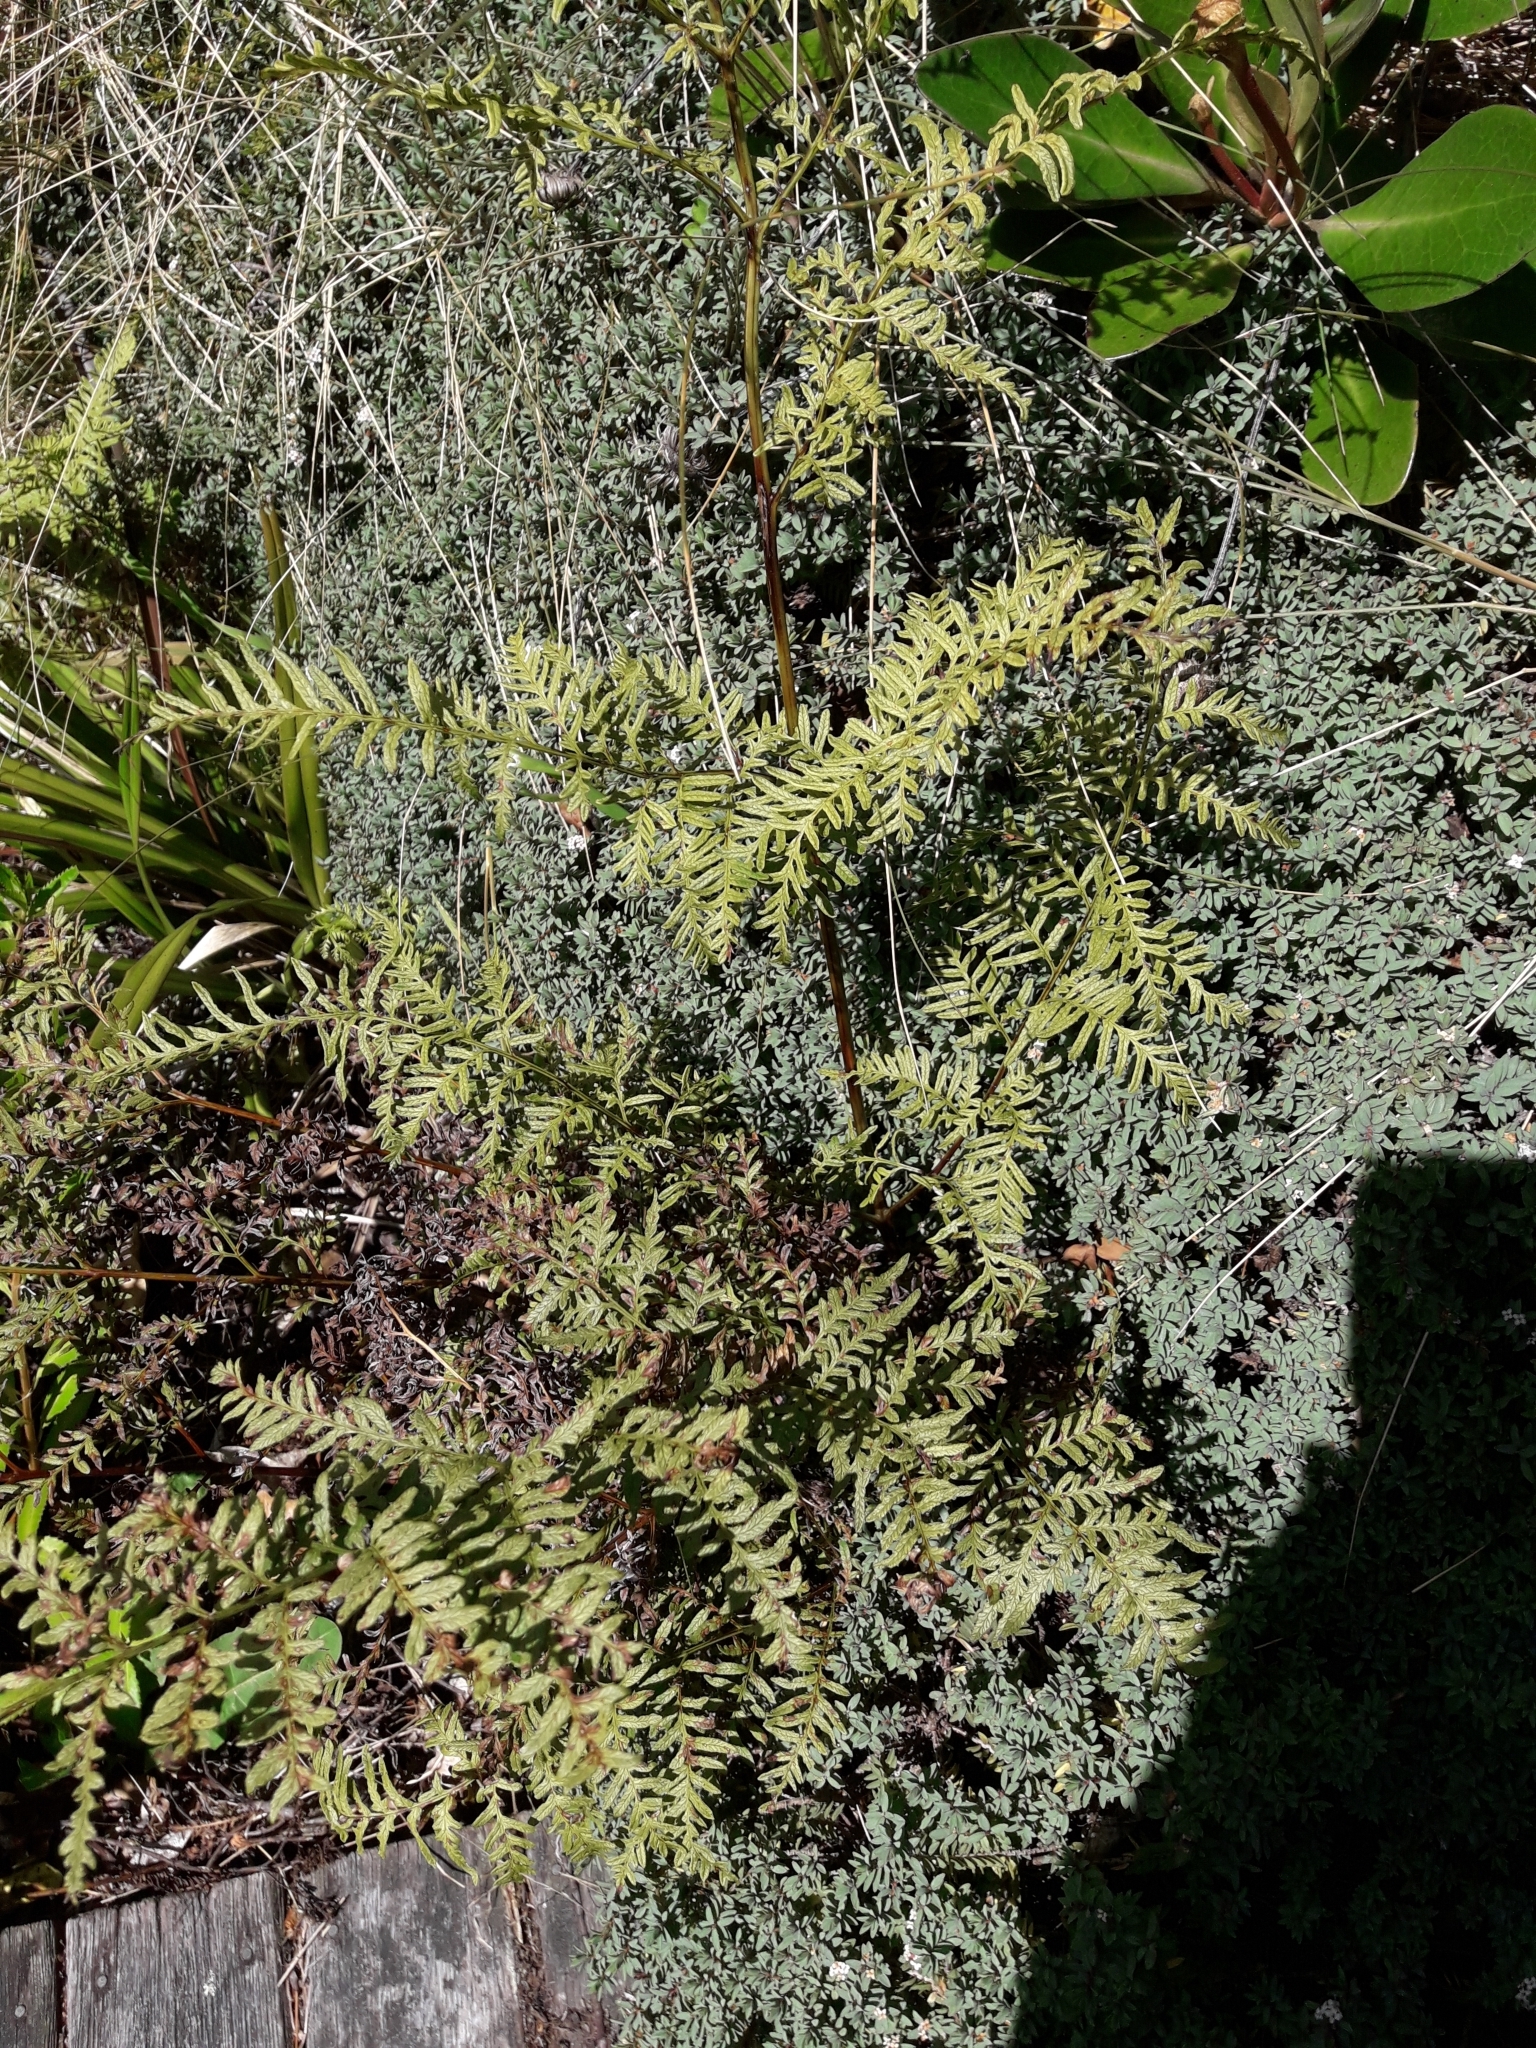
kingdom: Plantae
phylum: Tracheophyta
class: Polypodiopsida
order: Polypodiales
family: Pteridaceae
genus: Pteris
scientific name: Pteris tremula
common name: Australian brake
